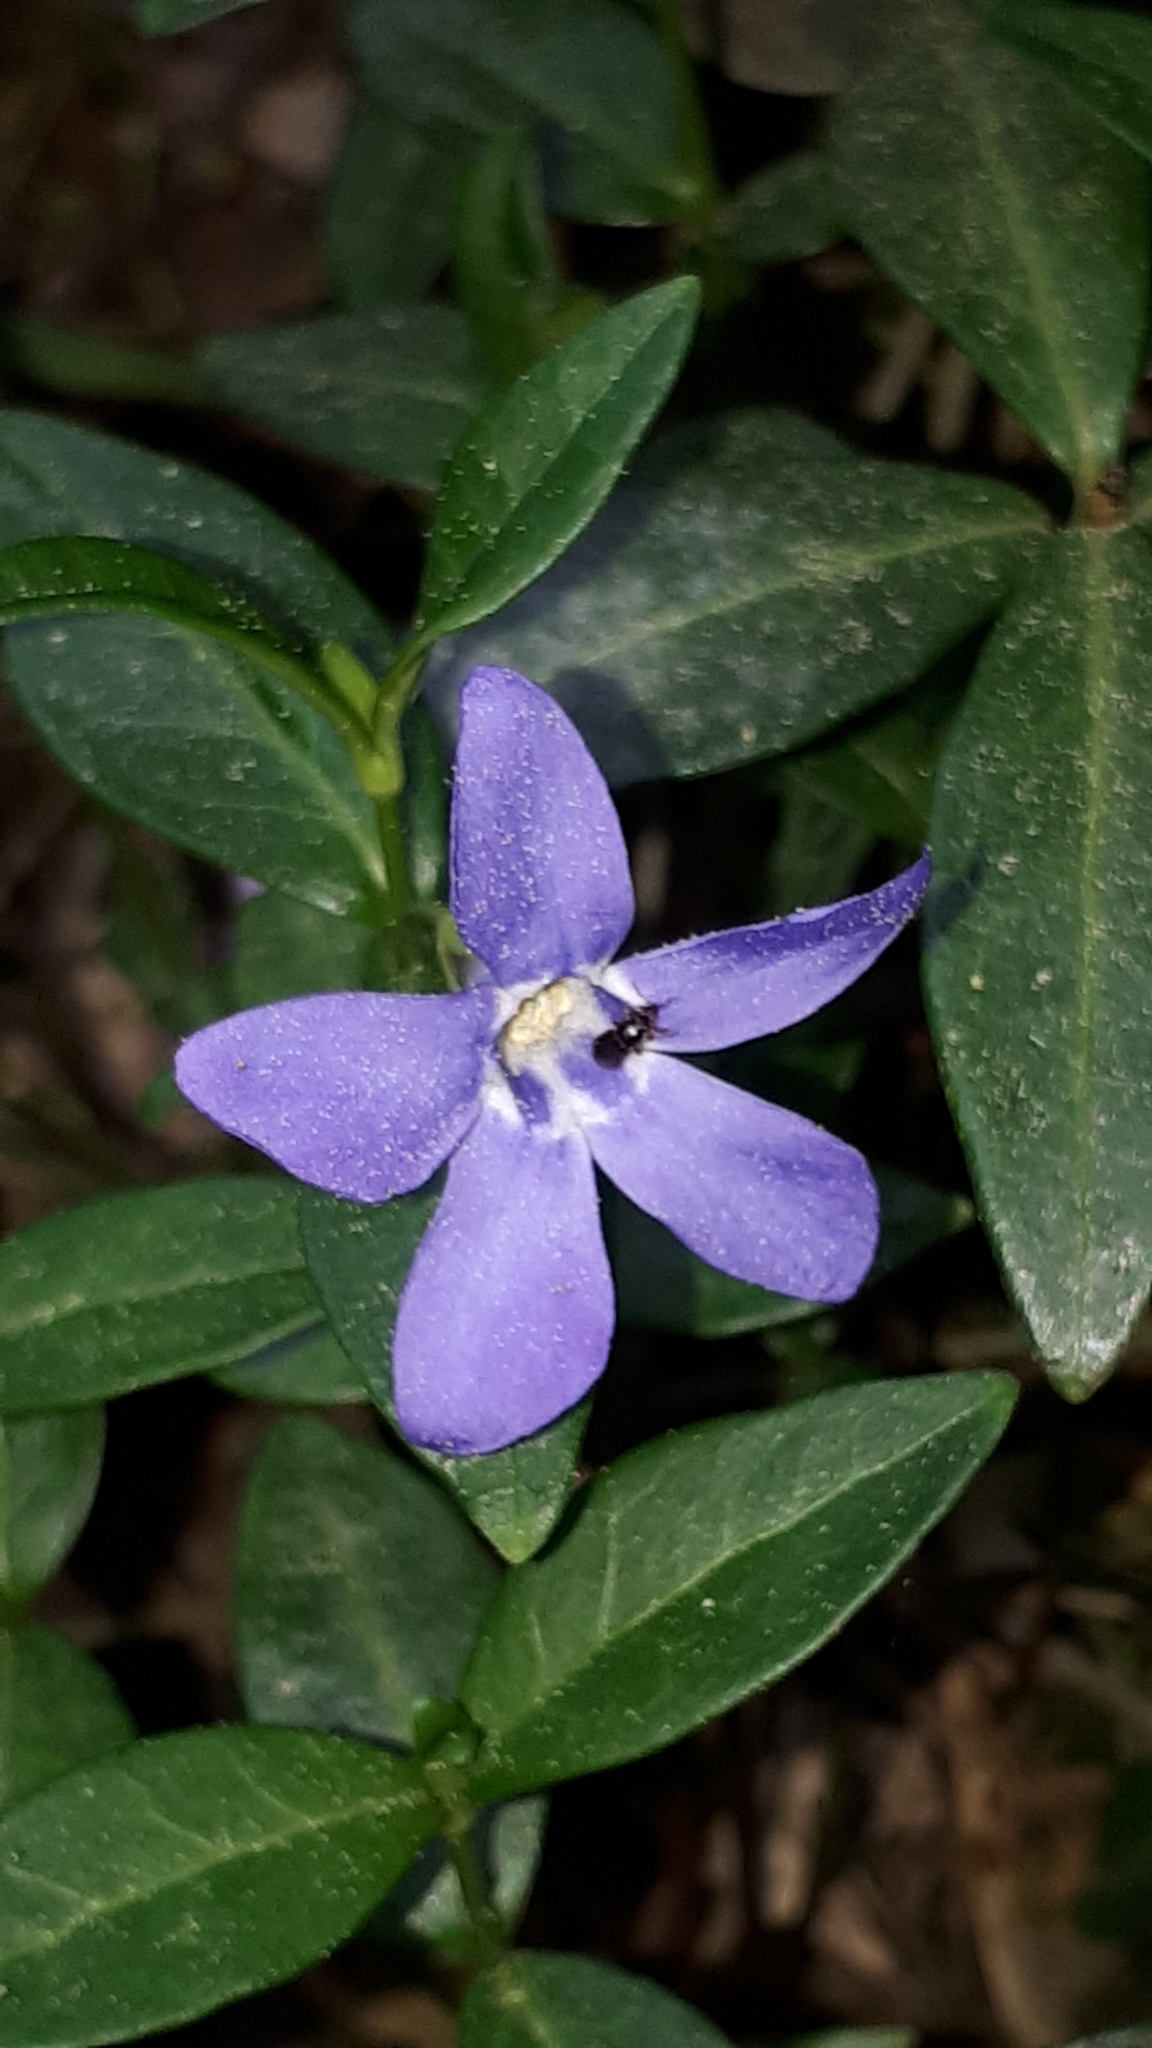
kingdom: Plantae
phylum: Tracheophyta
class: Magnoliopsida
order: Gentianales
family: Apocynaceae
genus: Vinca
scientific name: Vinca minor
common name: Lesser periwinkle
